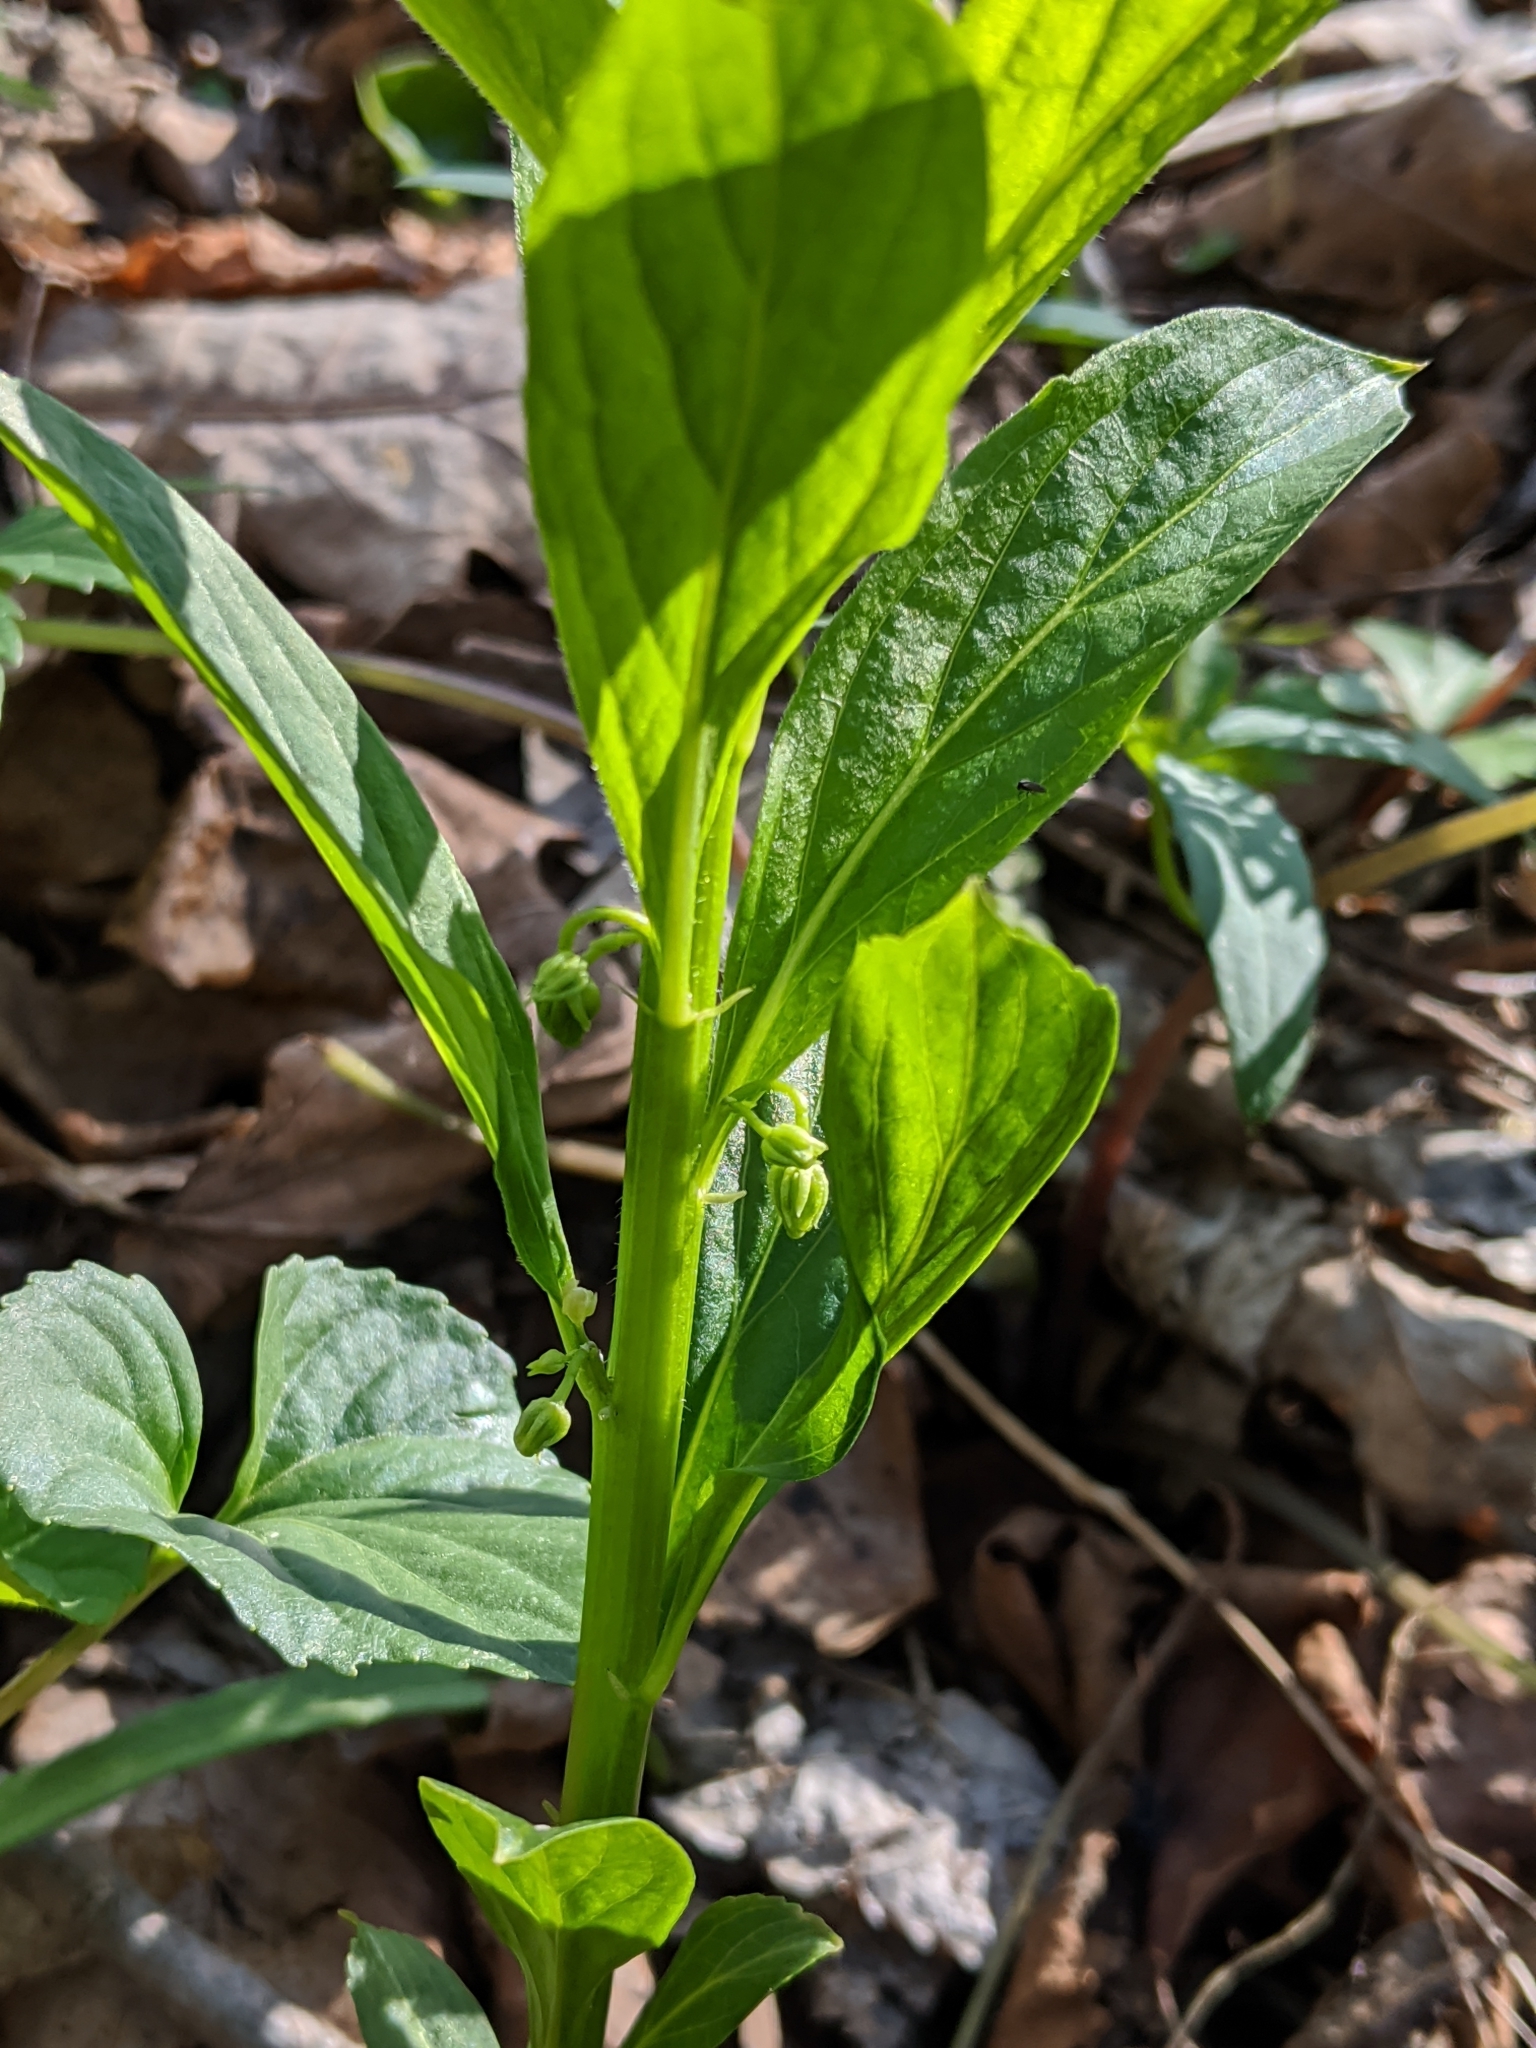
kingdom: Plantae
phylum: Tracheophyta
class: Magnoliopsida
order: Malpighiales
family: Violaceae
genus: Cubelium
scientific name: Cubelium concolor
